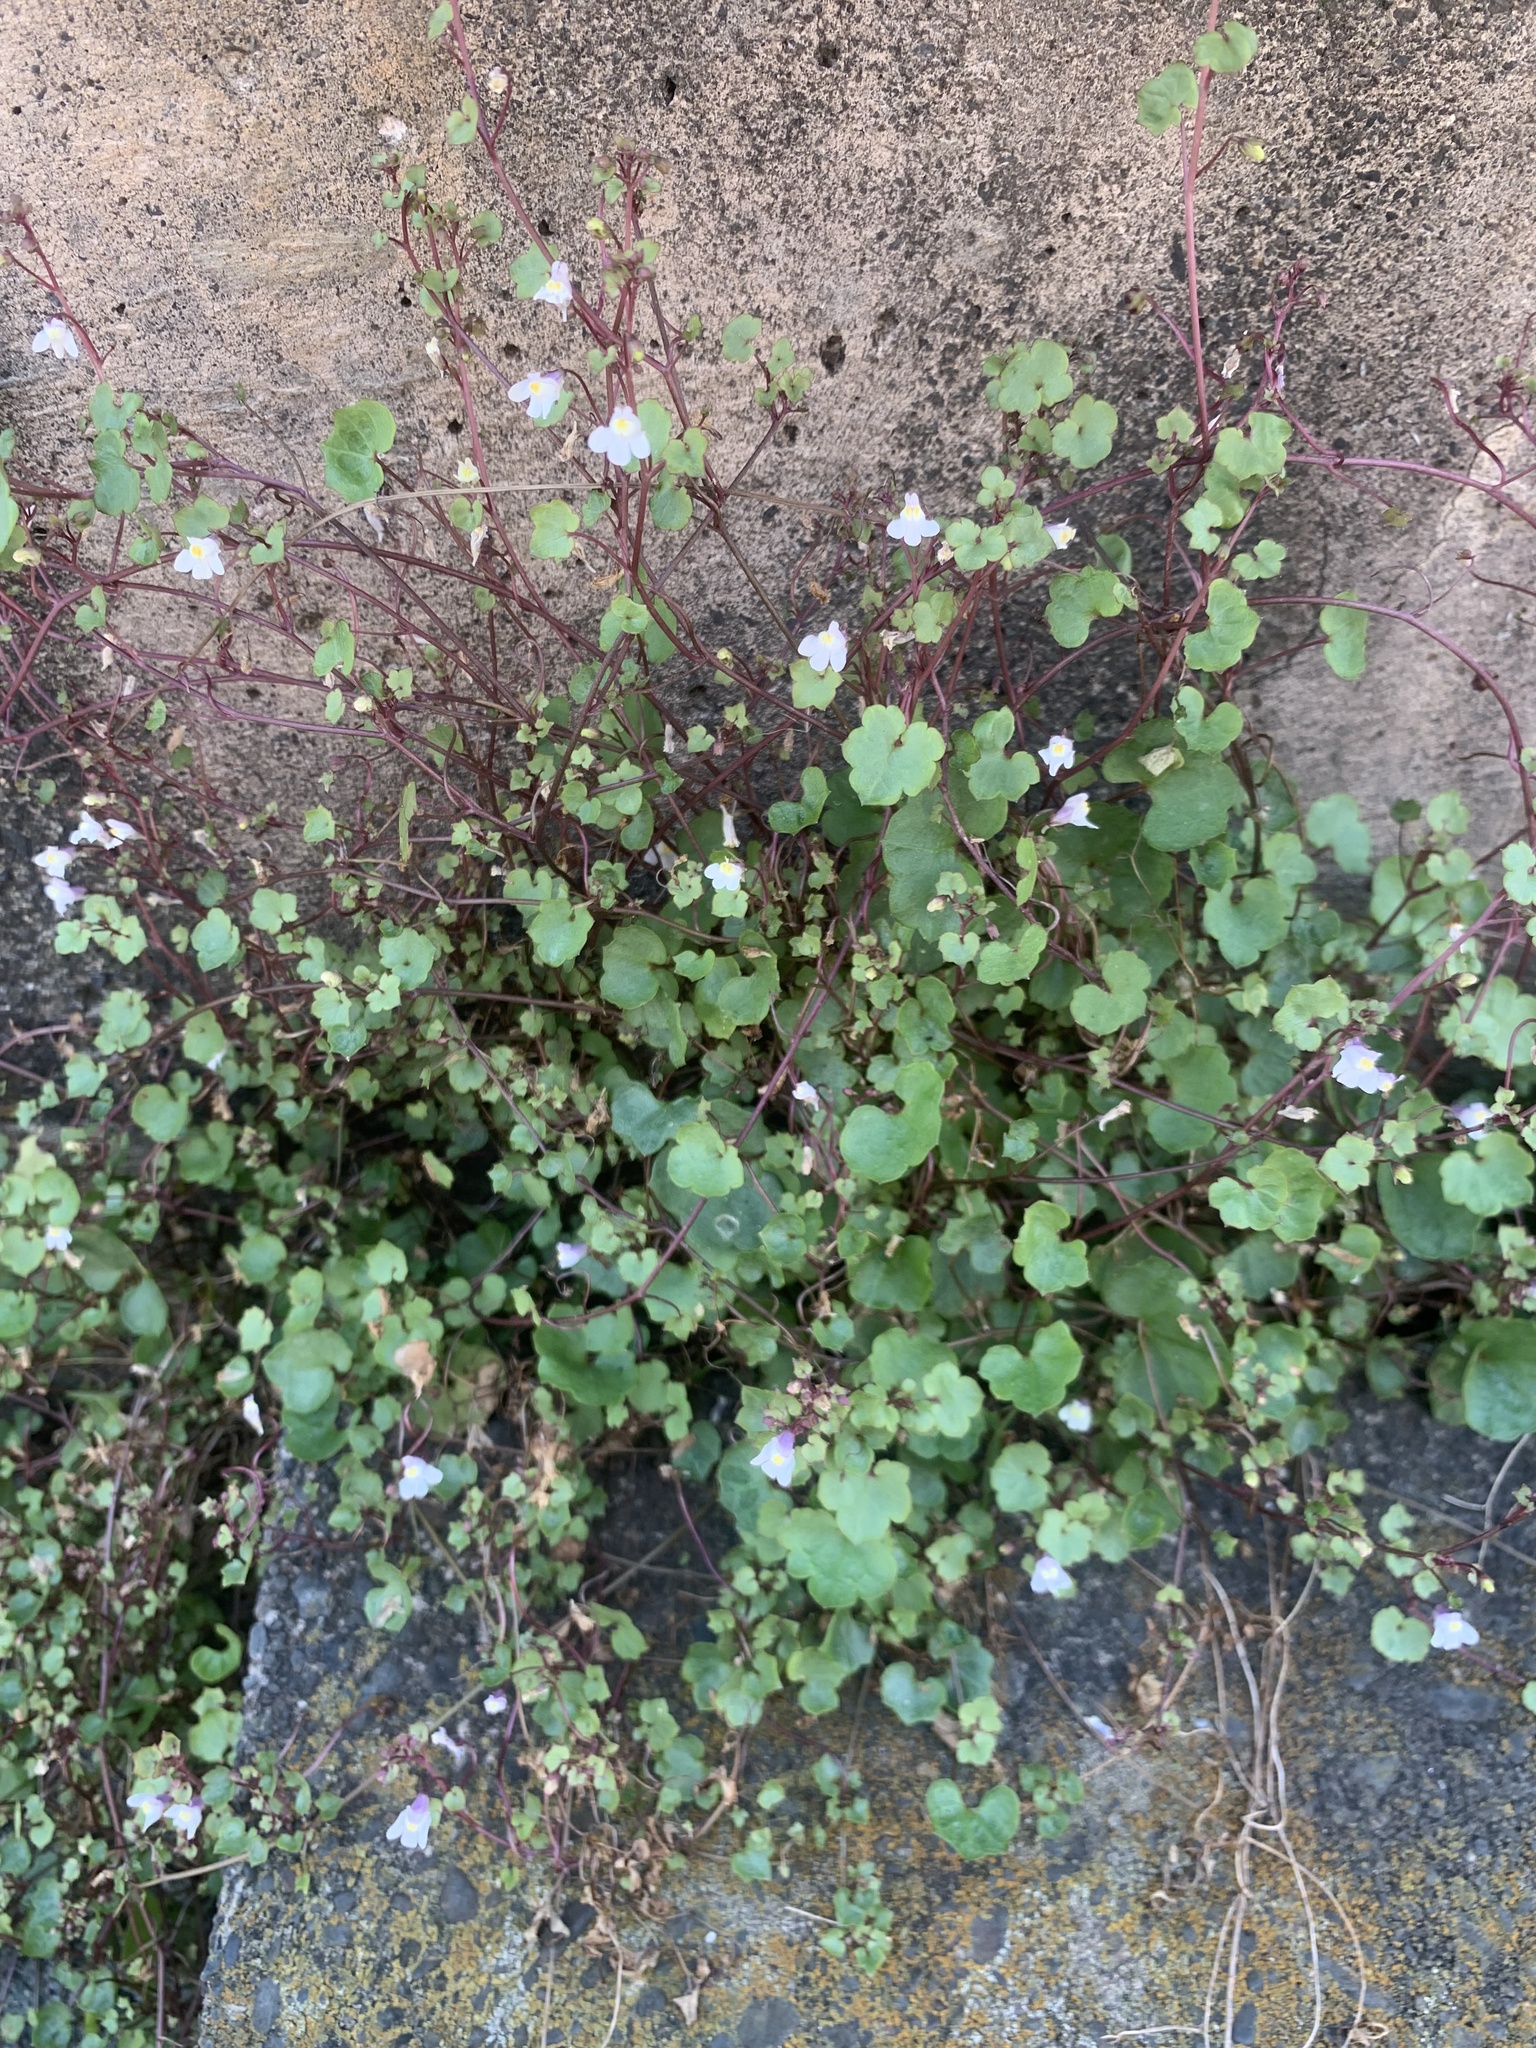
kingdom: Plantae
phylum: Tracheophyta
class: Magnoliopsida
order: Lamiales
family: Plantaginaceae
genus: Cymbalaria
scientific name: Cymbalaria muralis
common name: Ivy-leaved toadflax
